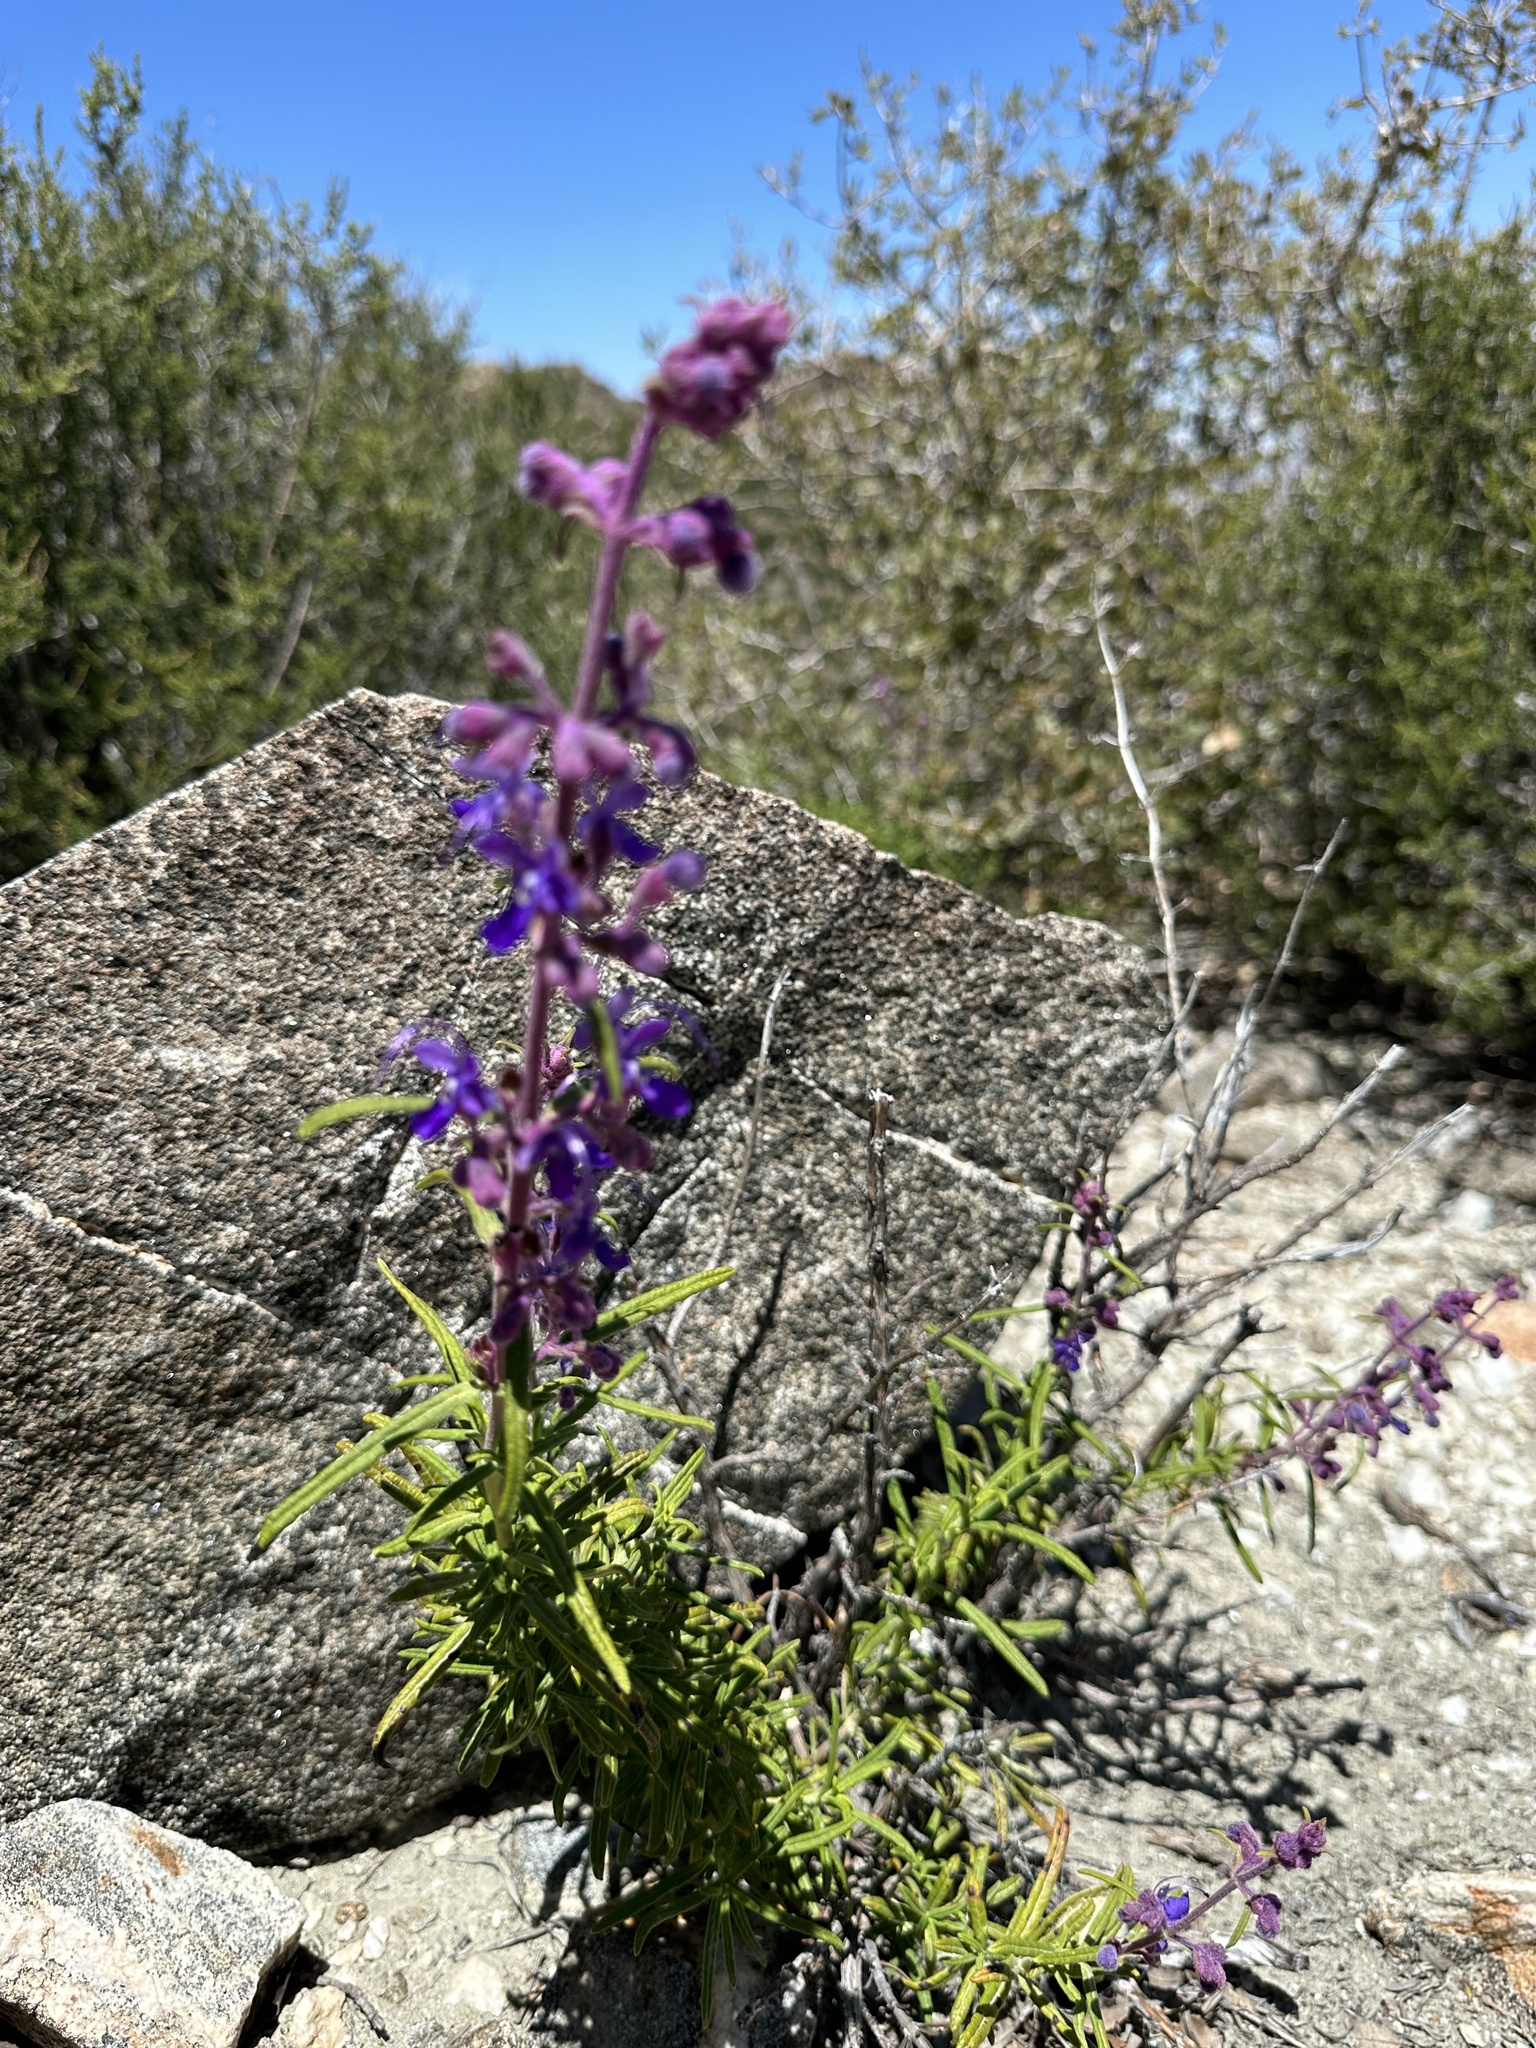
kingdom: Plantae
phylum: Tracheophyta
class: Magnoliopsida
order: Lamiales
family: Lamiaceae
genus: Trichostema
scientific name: Trichostema parishii
